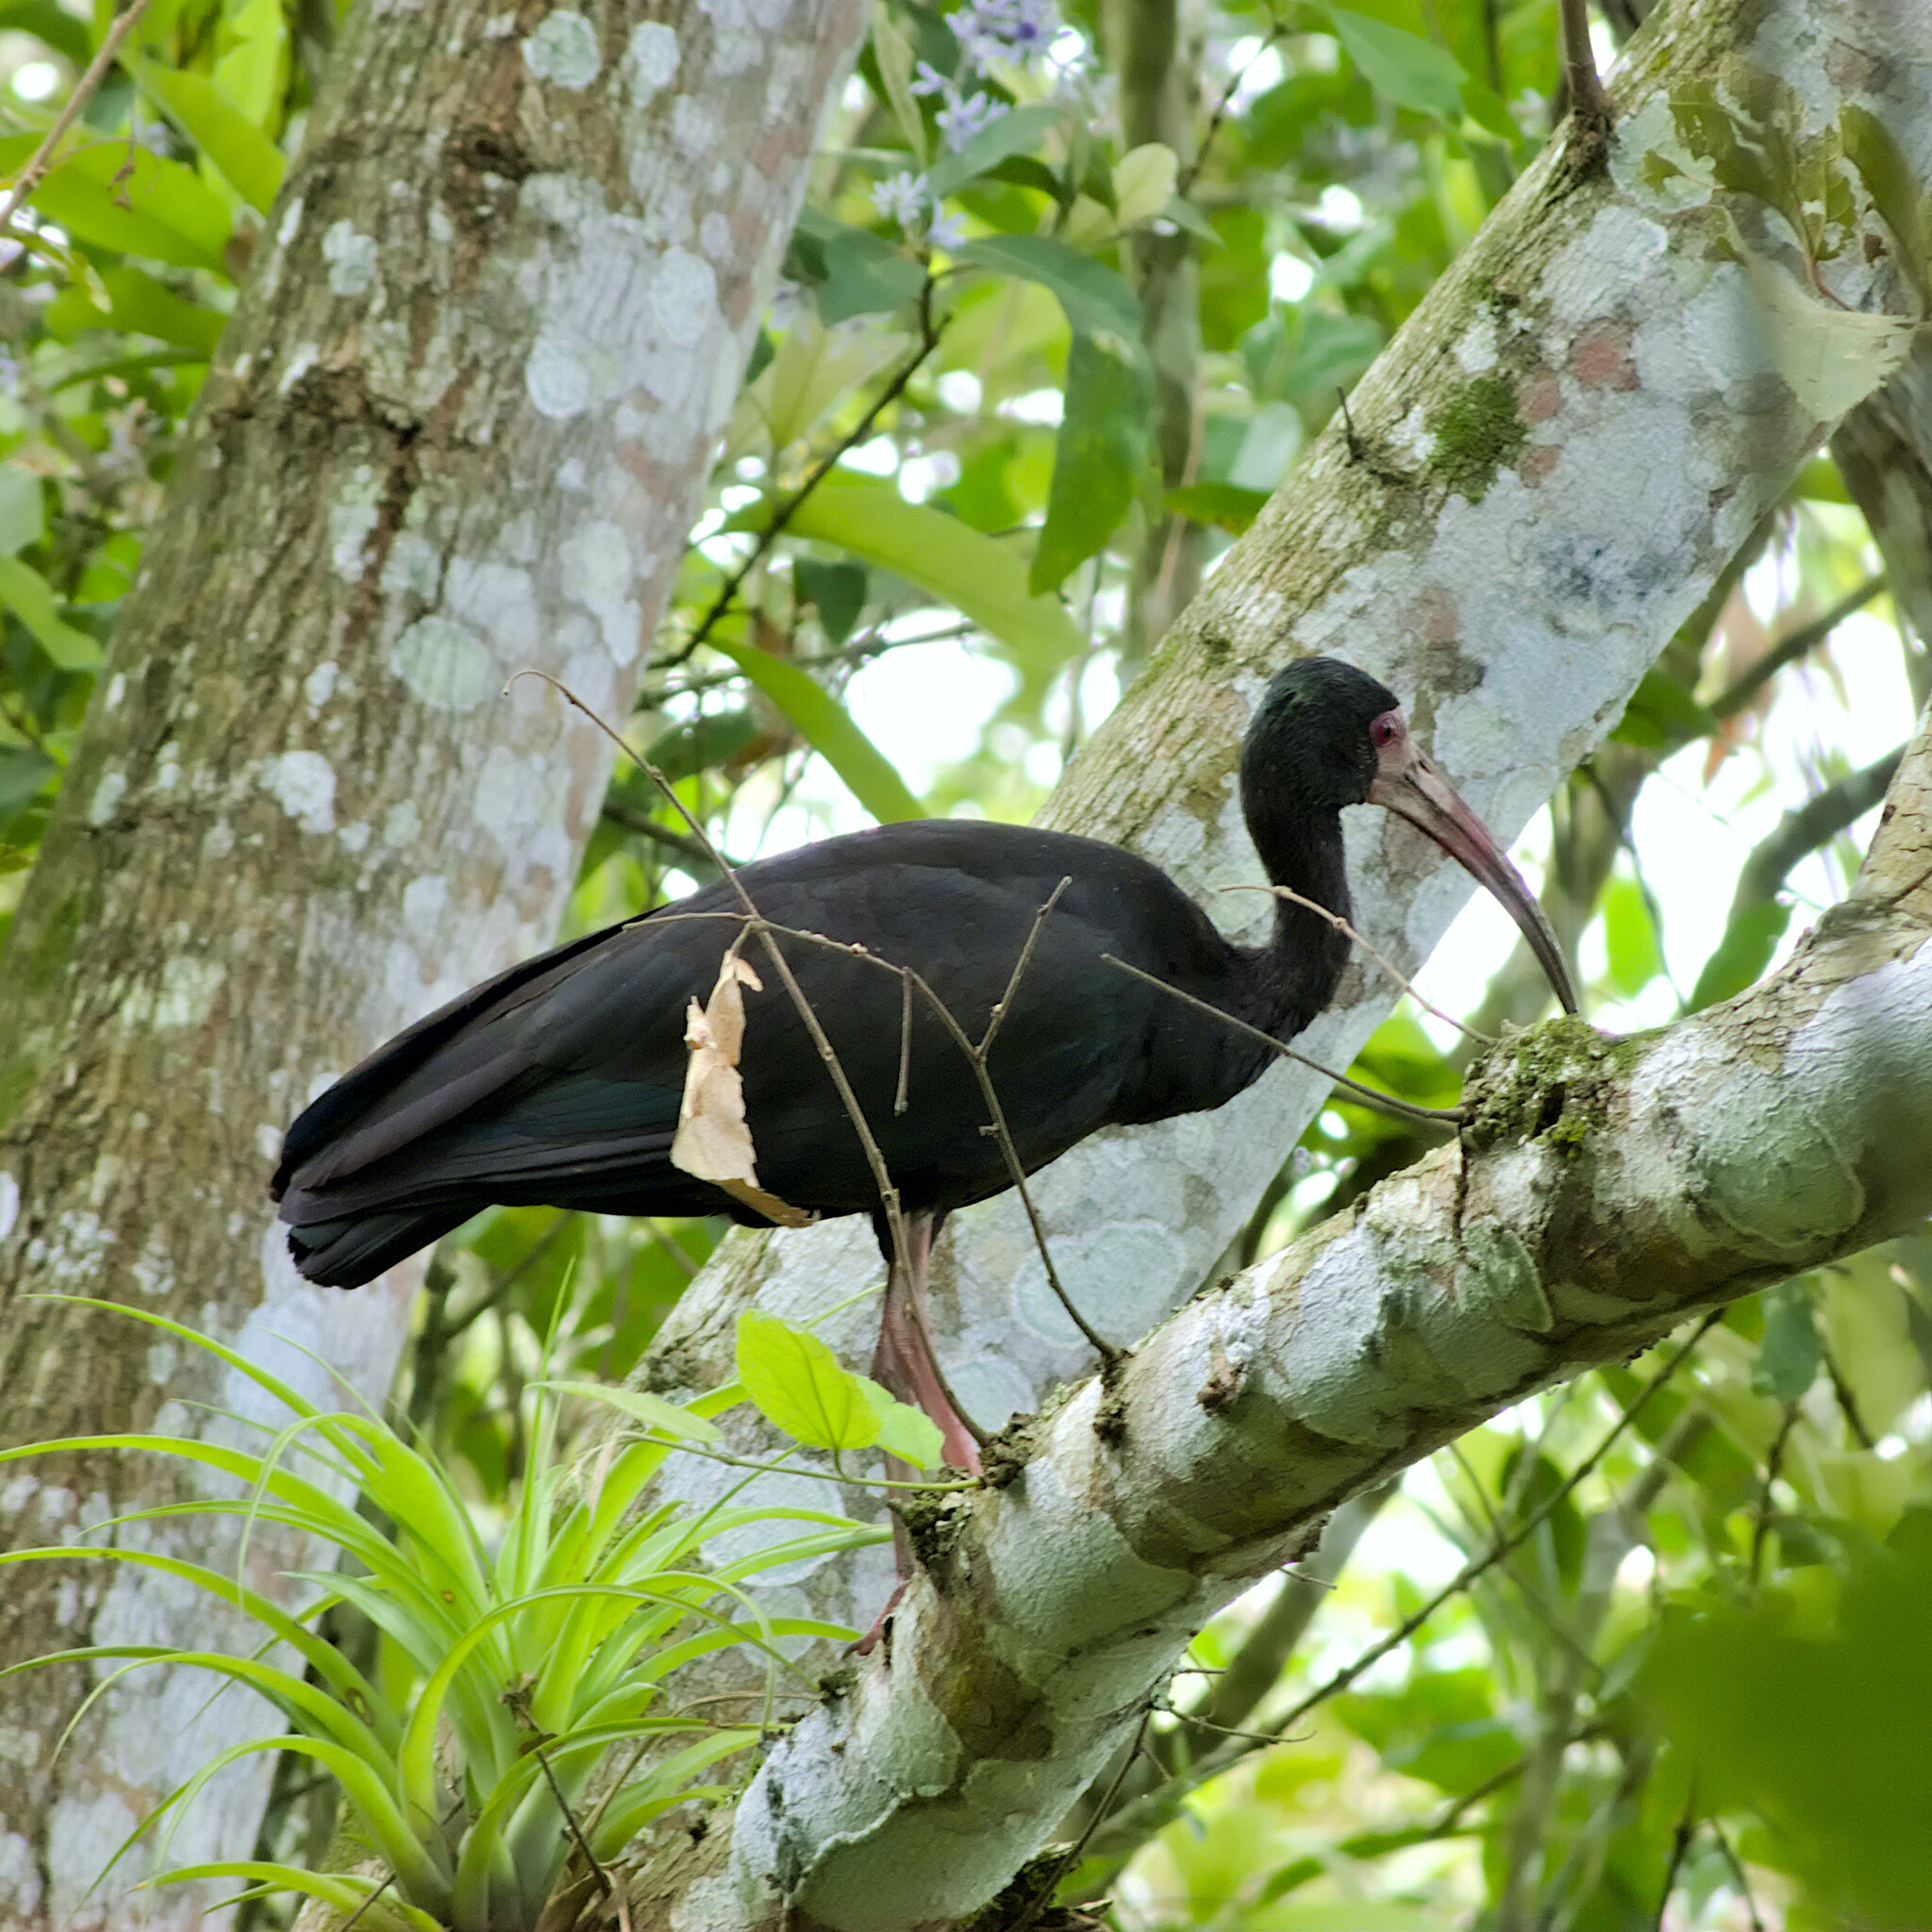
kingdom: Animalia
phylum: Chordata
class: Aves
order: Pelecaniformes
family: Threskiornithidae
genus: Phimosus
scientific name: Phimosus infuscatus
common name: Bare-faced ibis
